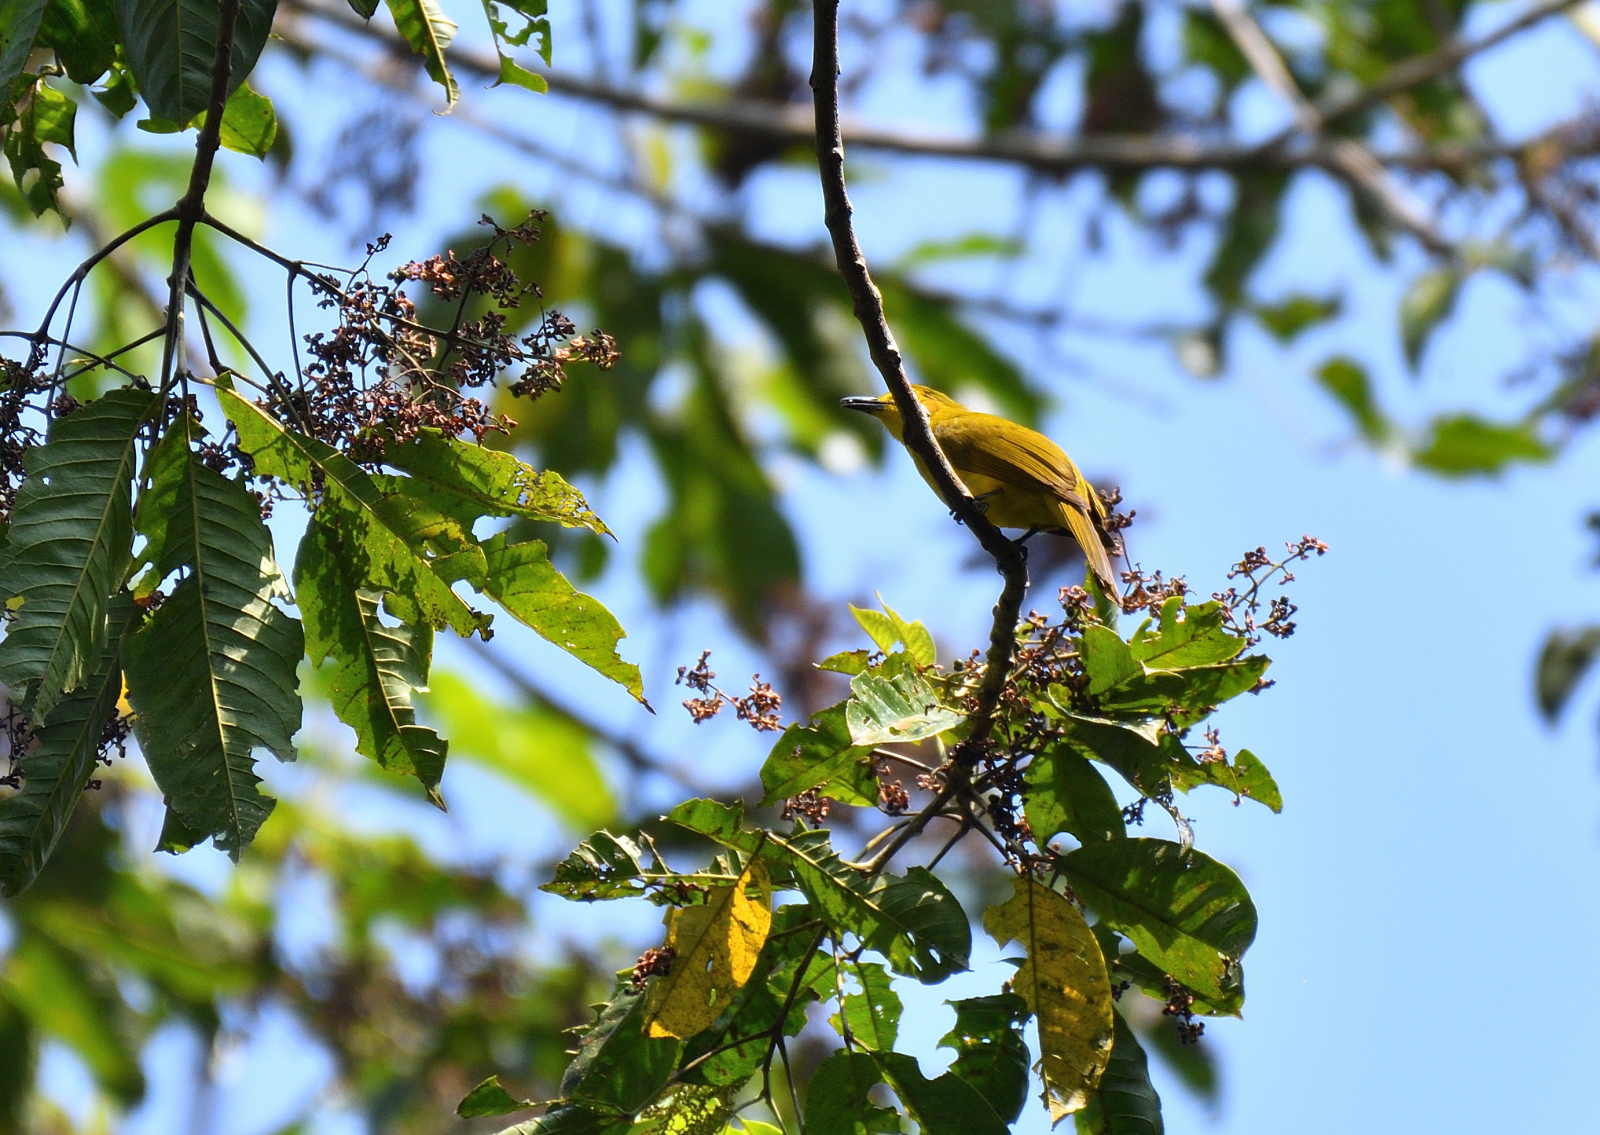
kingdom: Animalia
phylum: Chordata
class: Aves
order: Passeriformes
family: Pycnonotidae
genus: Acritillas
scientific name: Acritillas indica
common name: Yellow-browed bulbul
